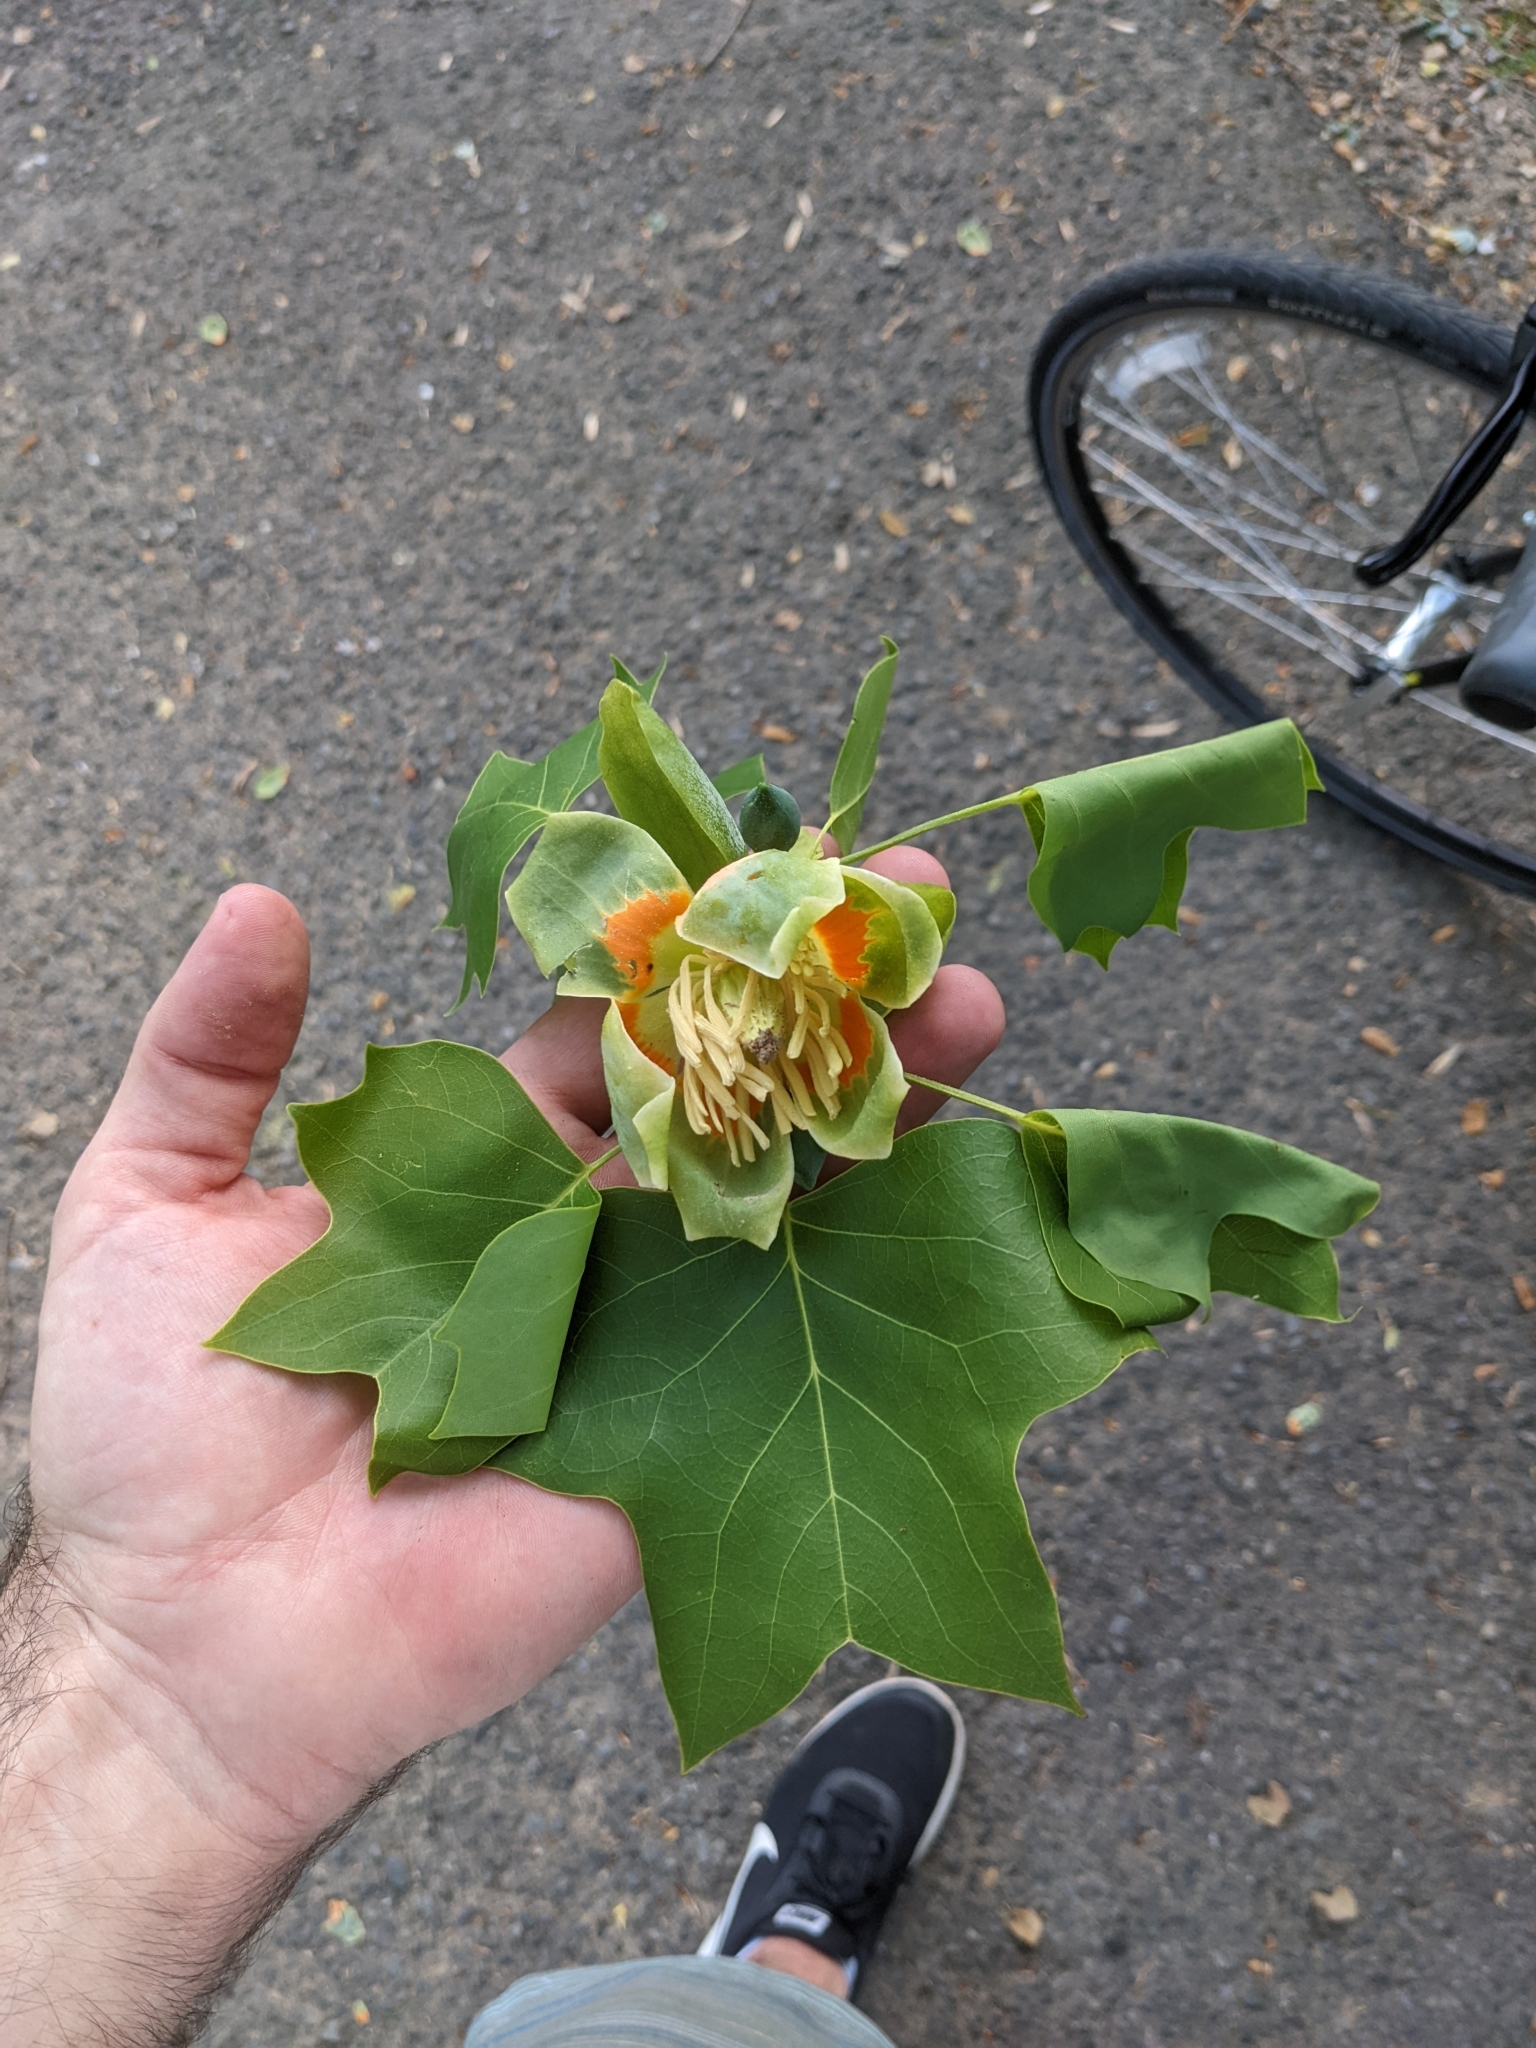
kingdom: Plantae
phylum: Tracheophyta
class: Magnoliopsida
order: Magnoliales
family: Magnoliaceae
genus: Liriodendron
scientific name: Liriodendron tulipifera
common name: Tulip tree
